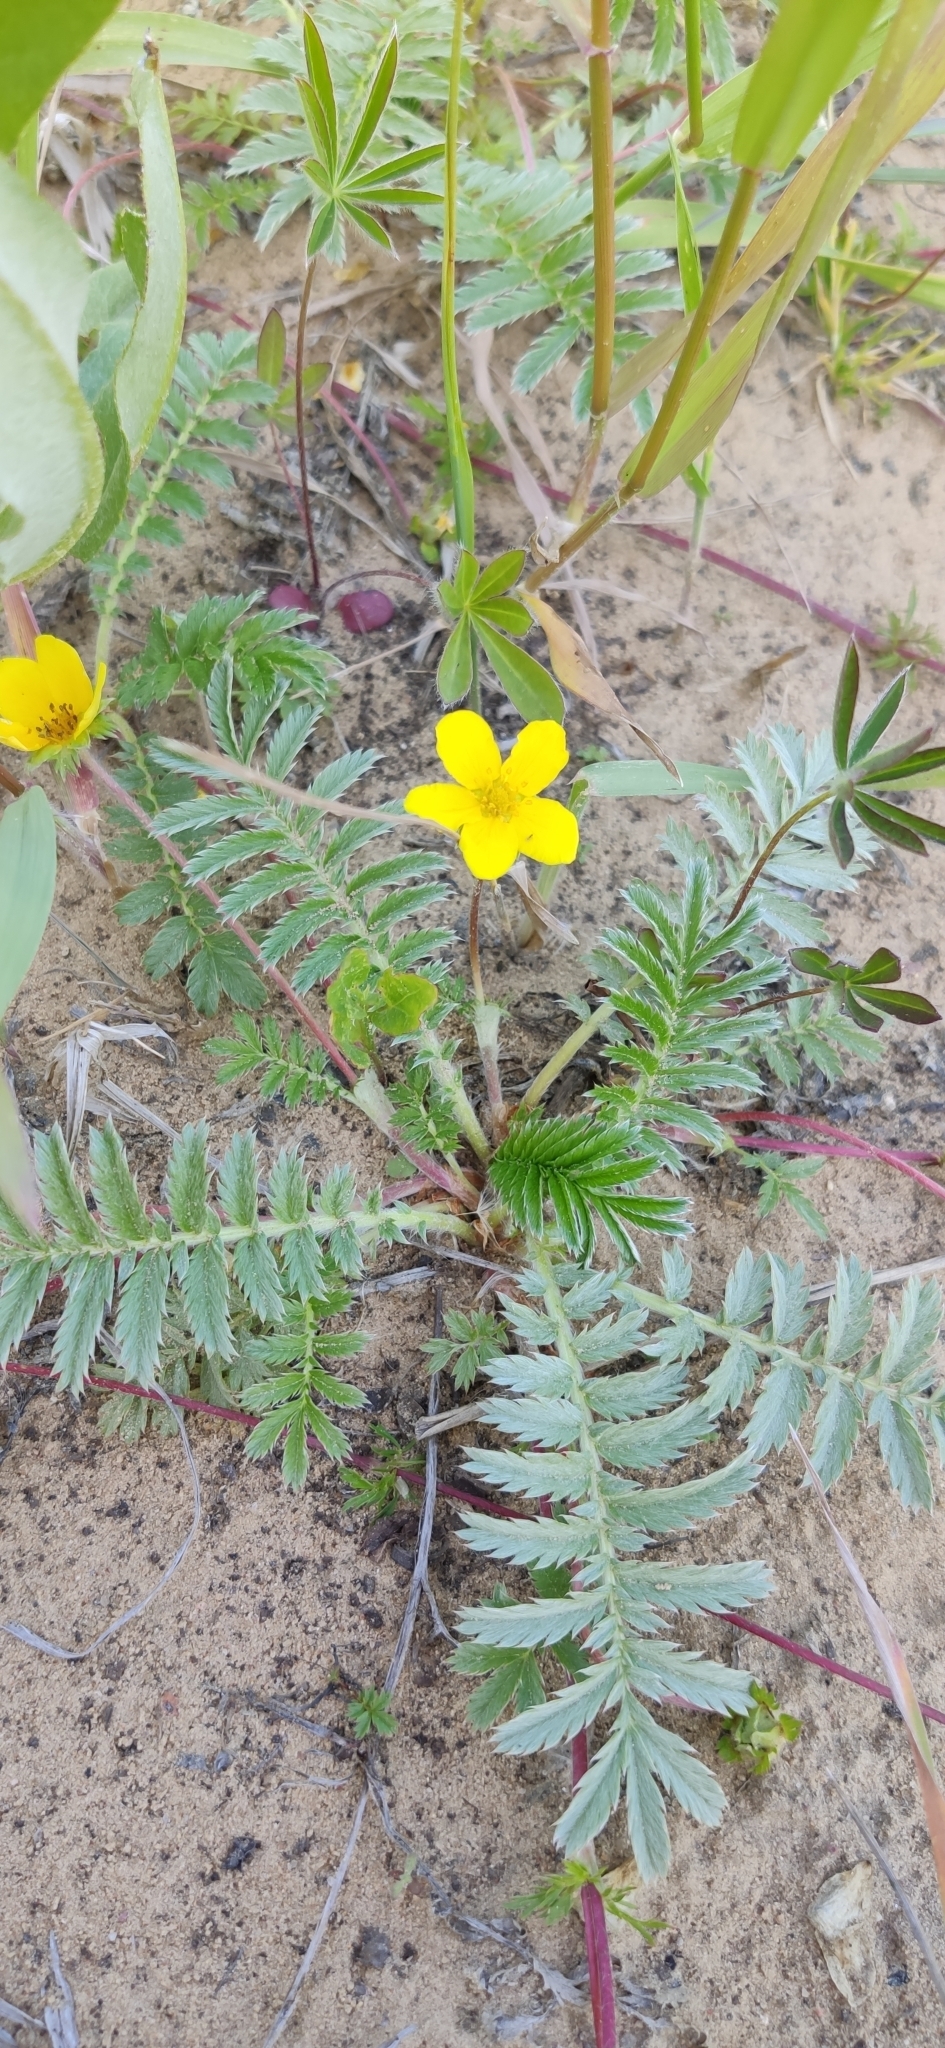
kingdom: Plantae
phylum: Tracheophyta
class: Magnoliopsida
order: Rosales
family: Rosaceae
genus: Argentina
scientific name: Argentina anserina
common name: Common silverweed
